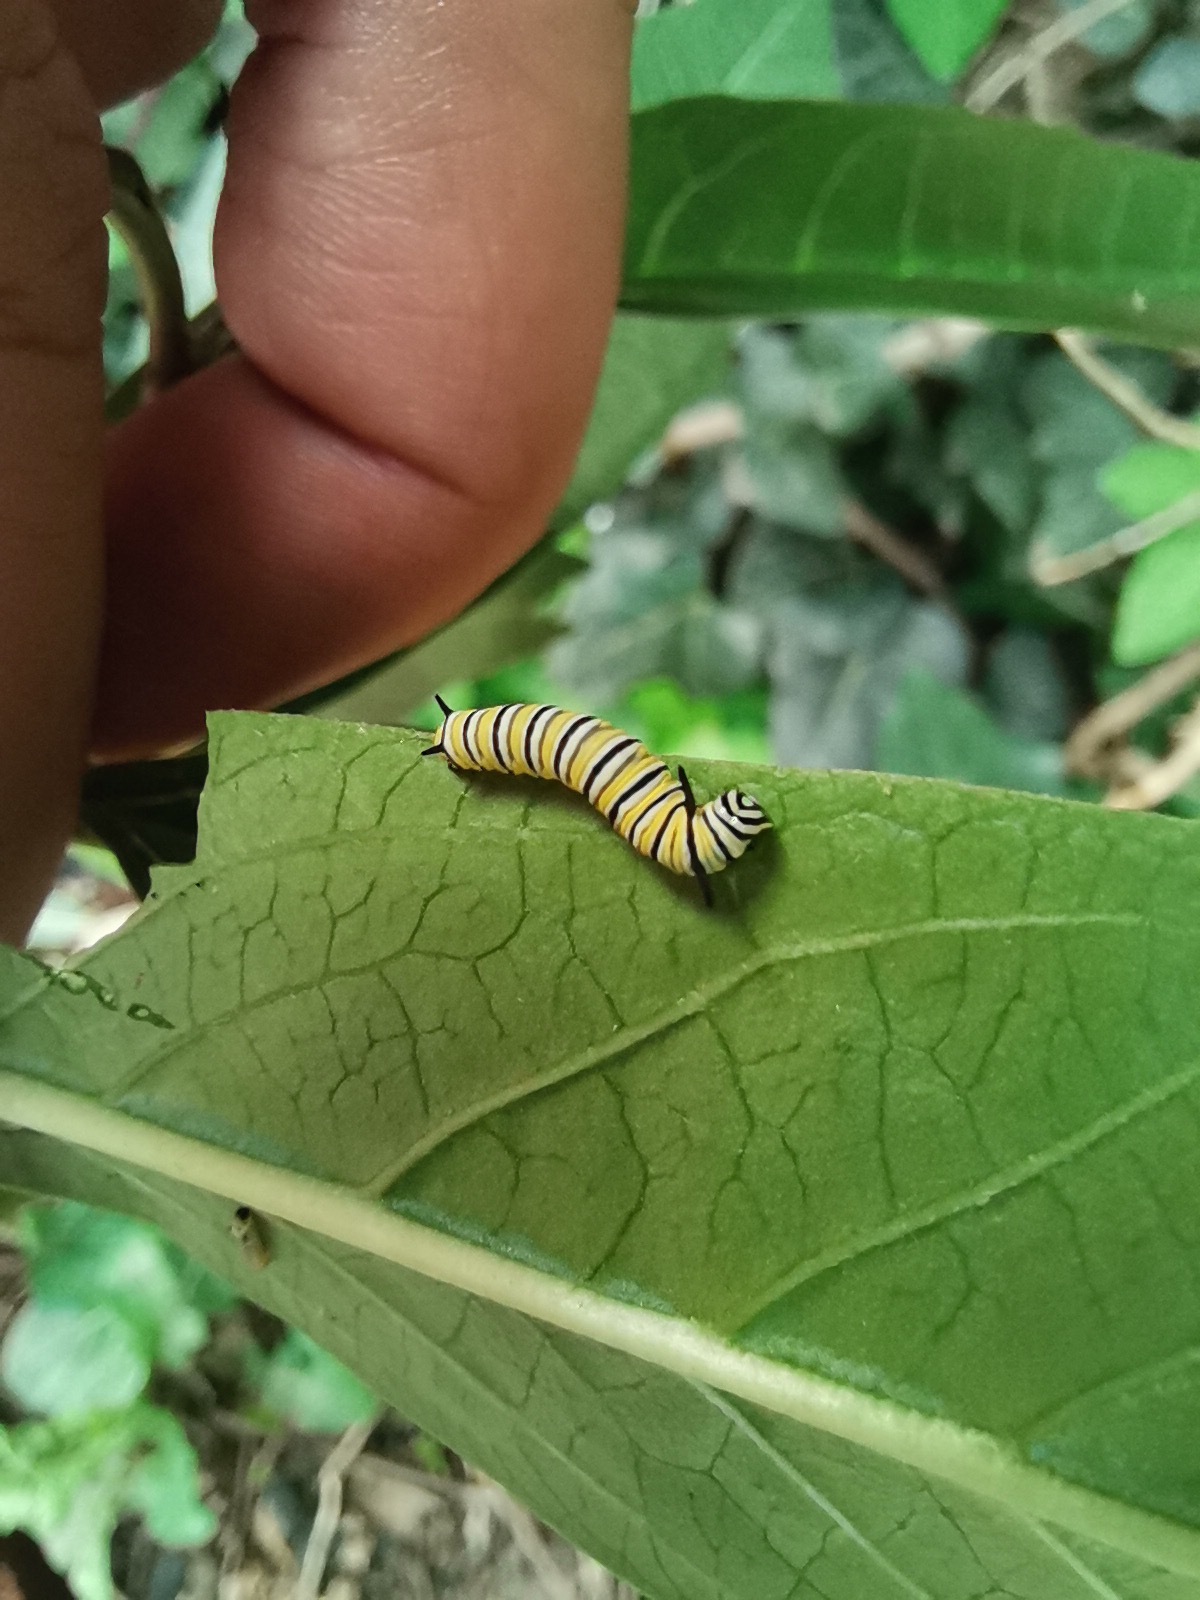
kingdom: Animalia
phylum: Arthropoda
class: Insecta
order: Lepidoptera
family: Nymphalidae
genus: Danaus
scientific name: Danaus plexippus
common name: Monarch
